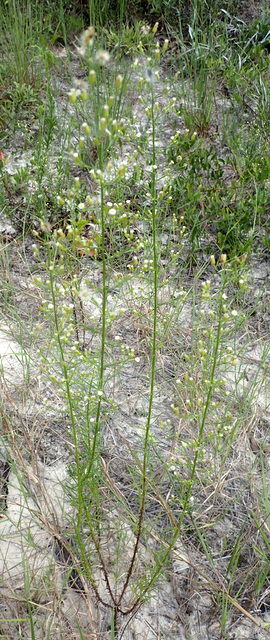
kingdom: Plantae
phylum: Tracheophyta
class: Magnoliopsida
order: Asterales
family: Asteraceae
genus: Erigeron
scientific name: Erigeron canadensis
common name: Canadian fleabane
